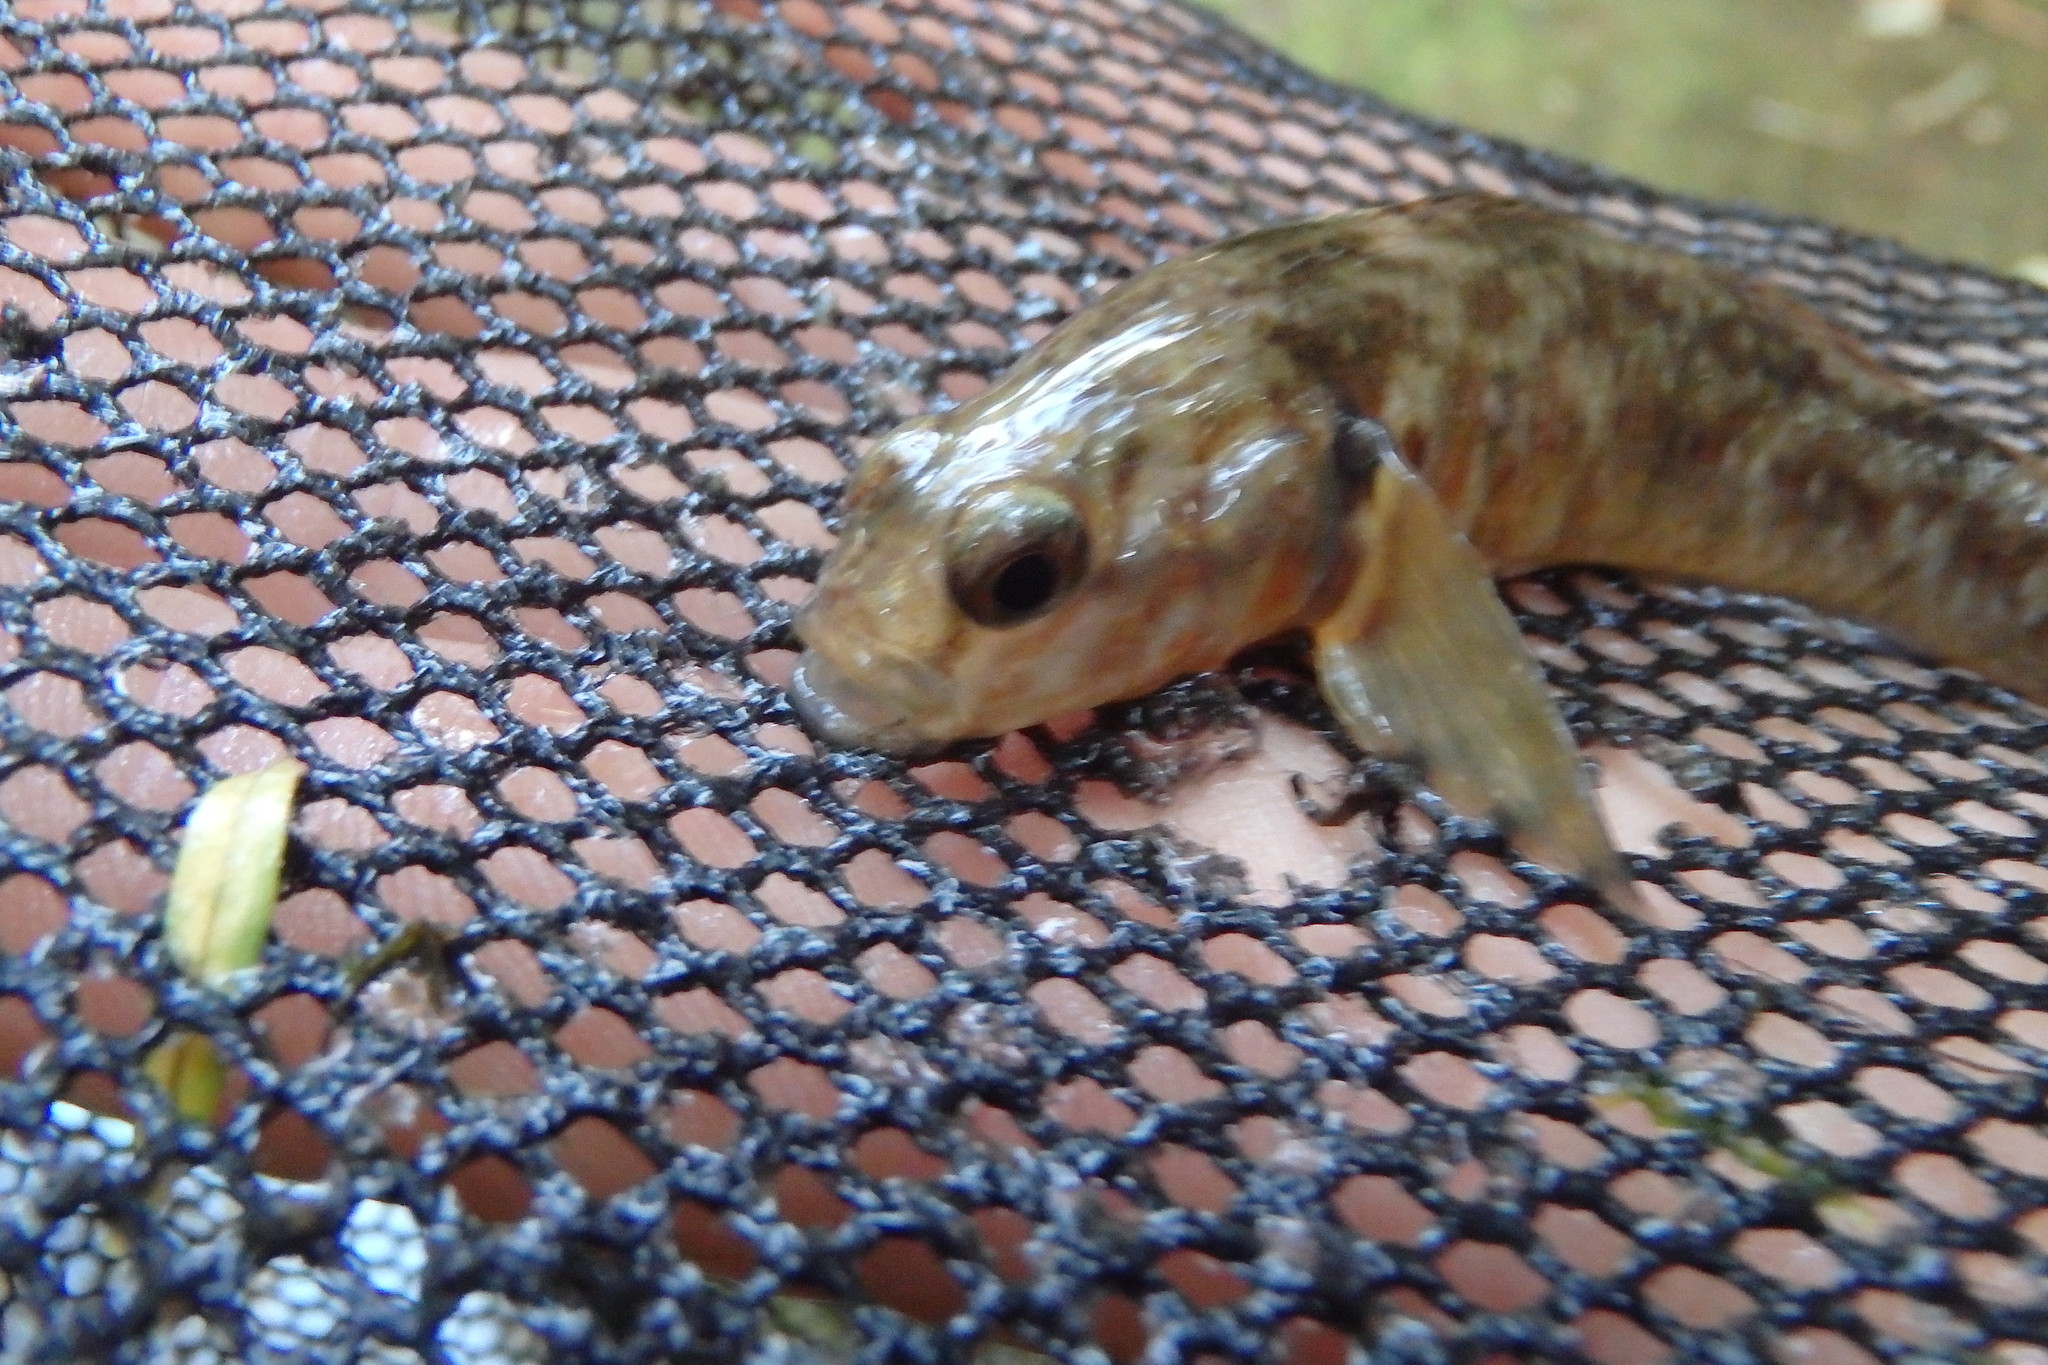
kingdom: Animalia
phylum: Chordata
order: Perciformes
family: Eleotridae
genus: Gobiomorphus
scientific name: Gobiomorphus huttoni
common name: Redfin bully
